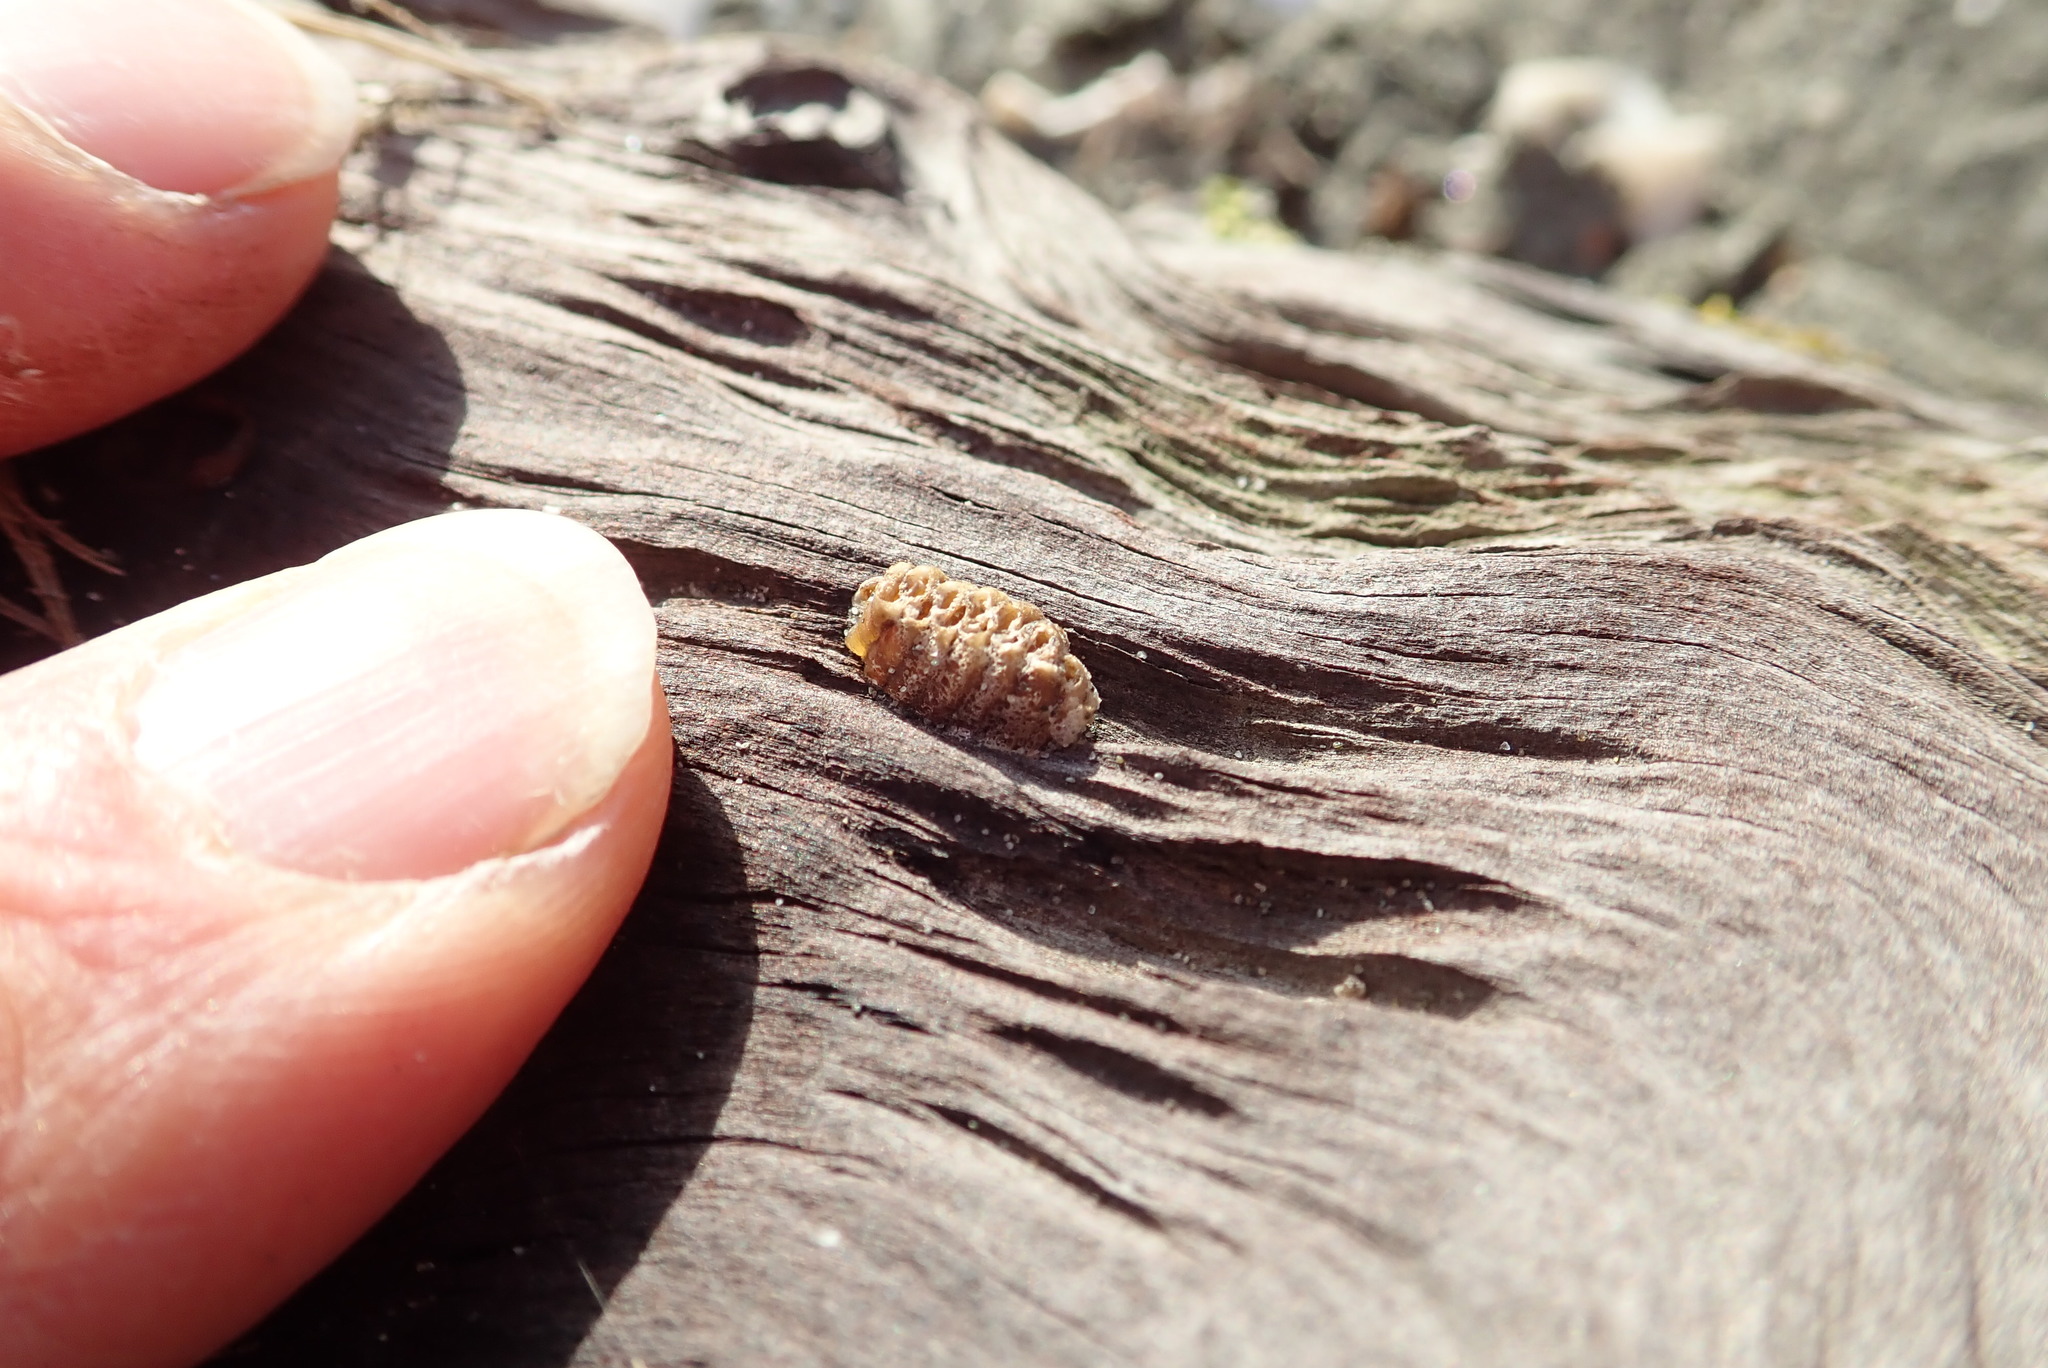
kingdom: Animalia
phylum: Arthropoda
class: Insecta
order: Mantodea
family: Mantidae
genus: Orthodera
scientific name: Orthodera novaezealandiae
